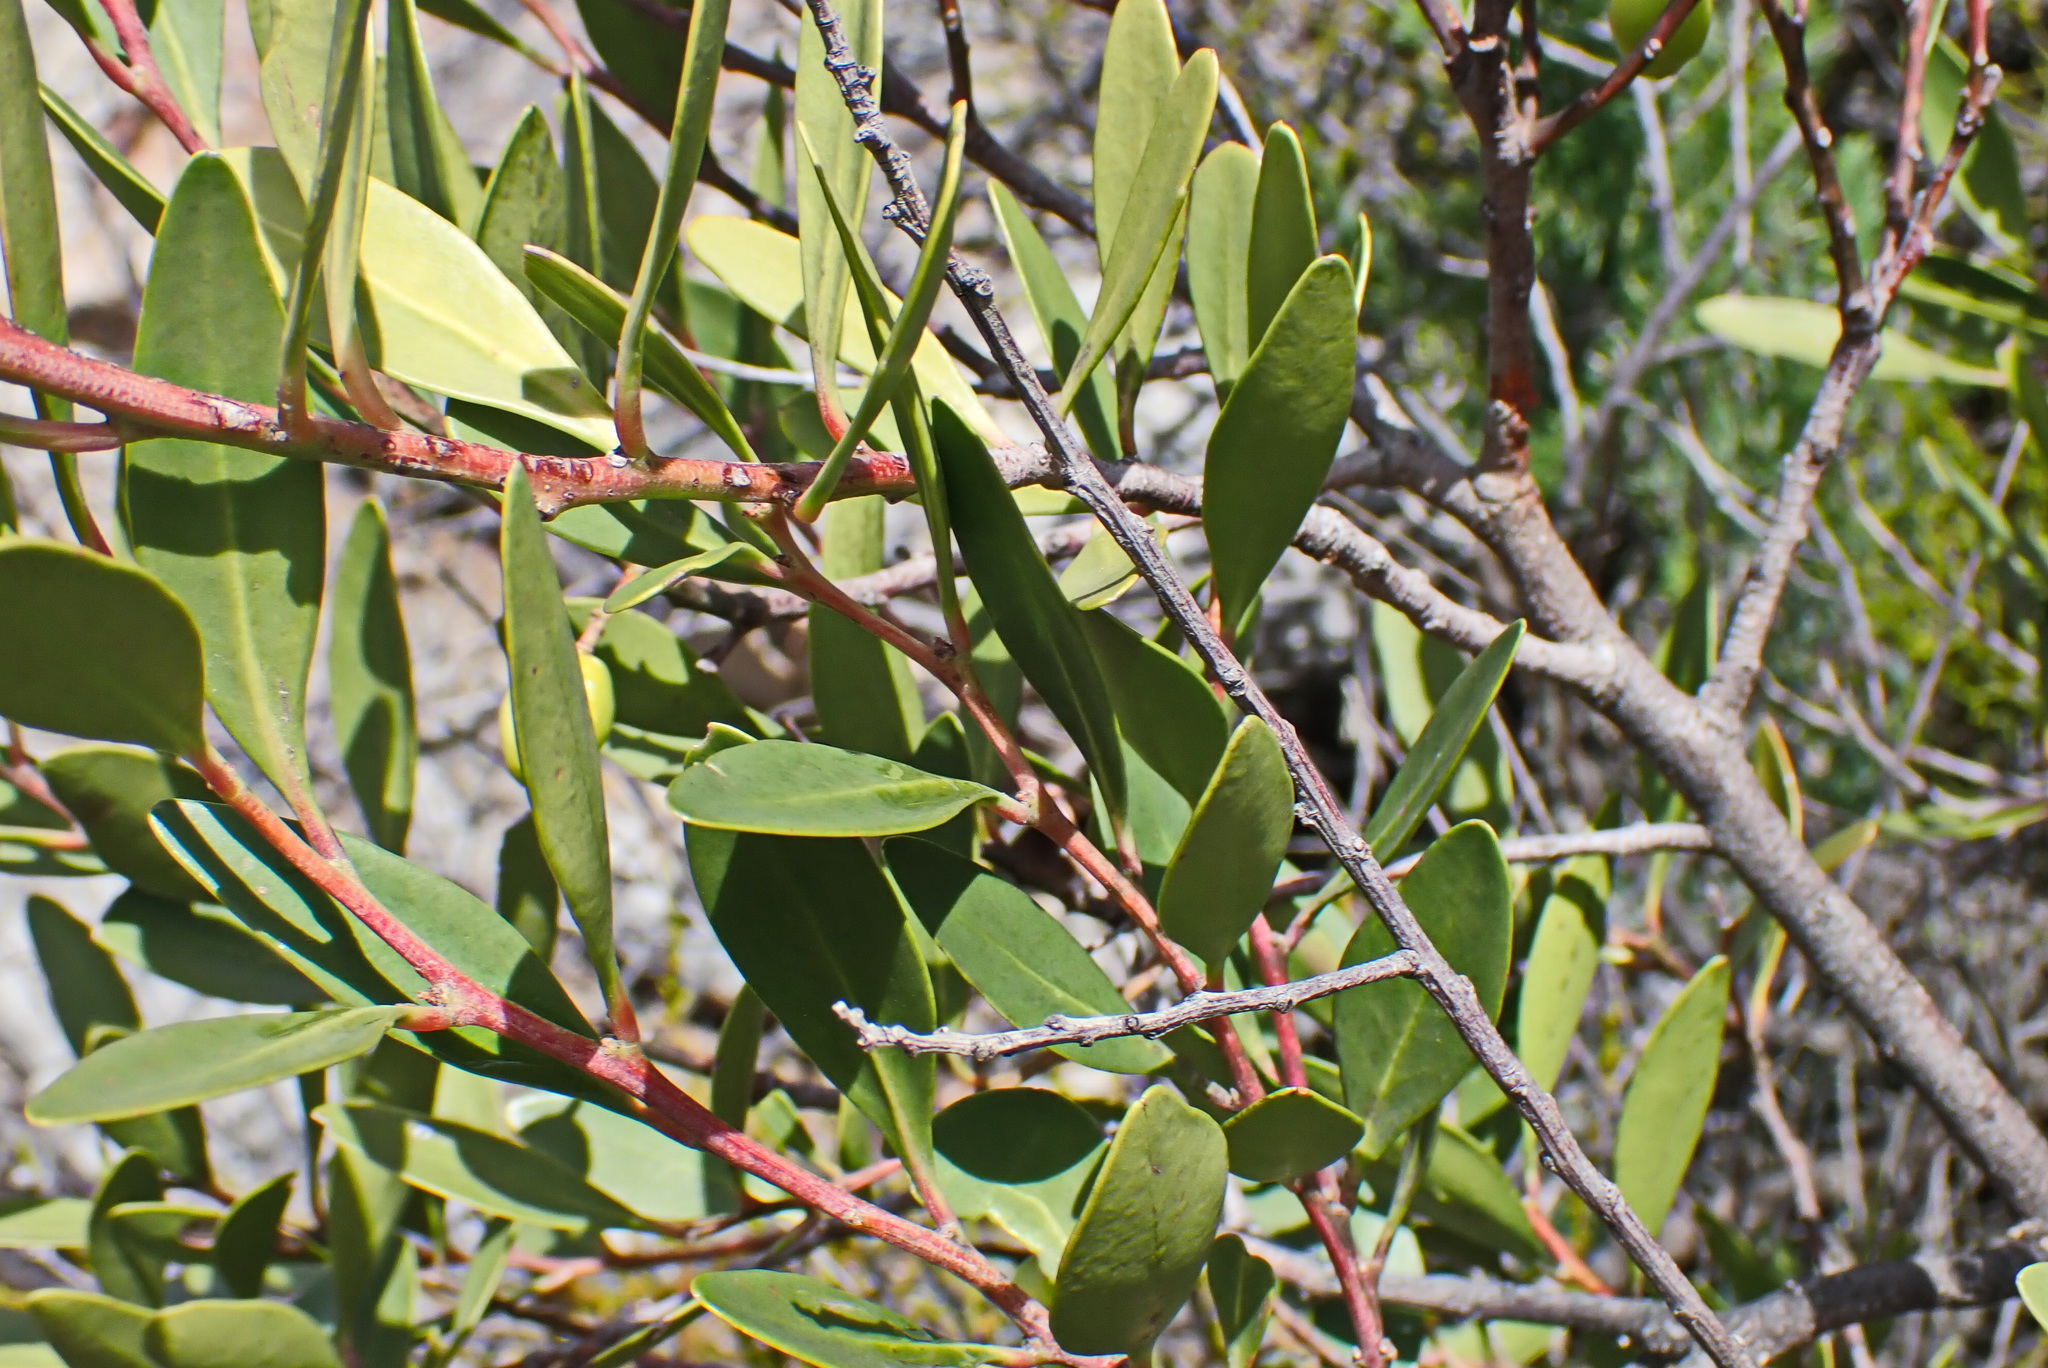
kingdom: Plantae
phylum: Tracheophyta
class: Magnoliopsida
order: Celastrales
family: Celastraceae
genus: Gymnosporia
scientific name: Gymnosporia laurina
